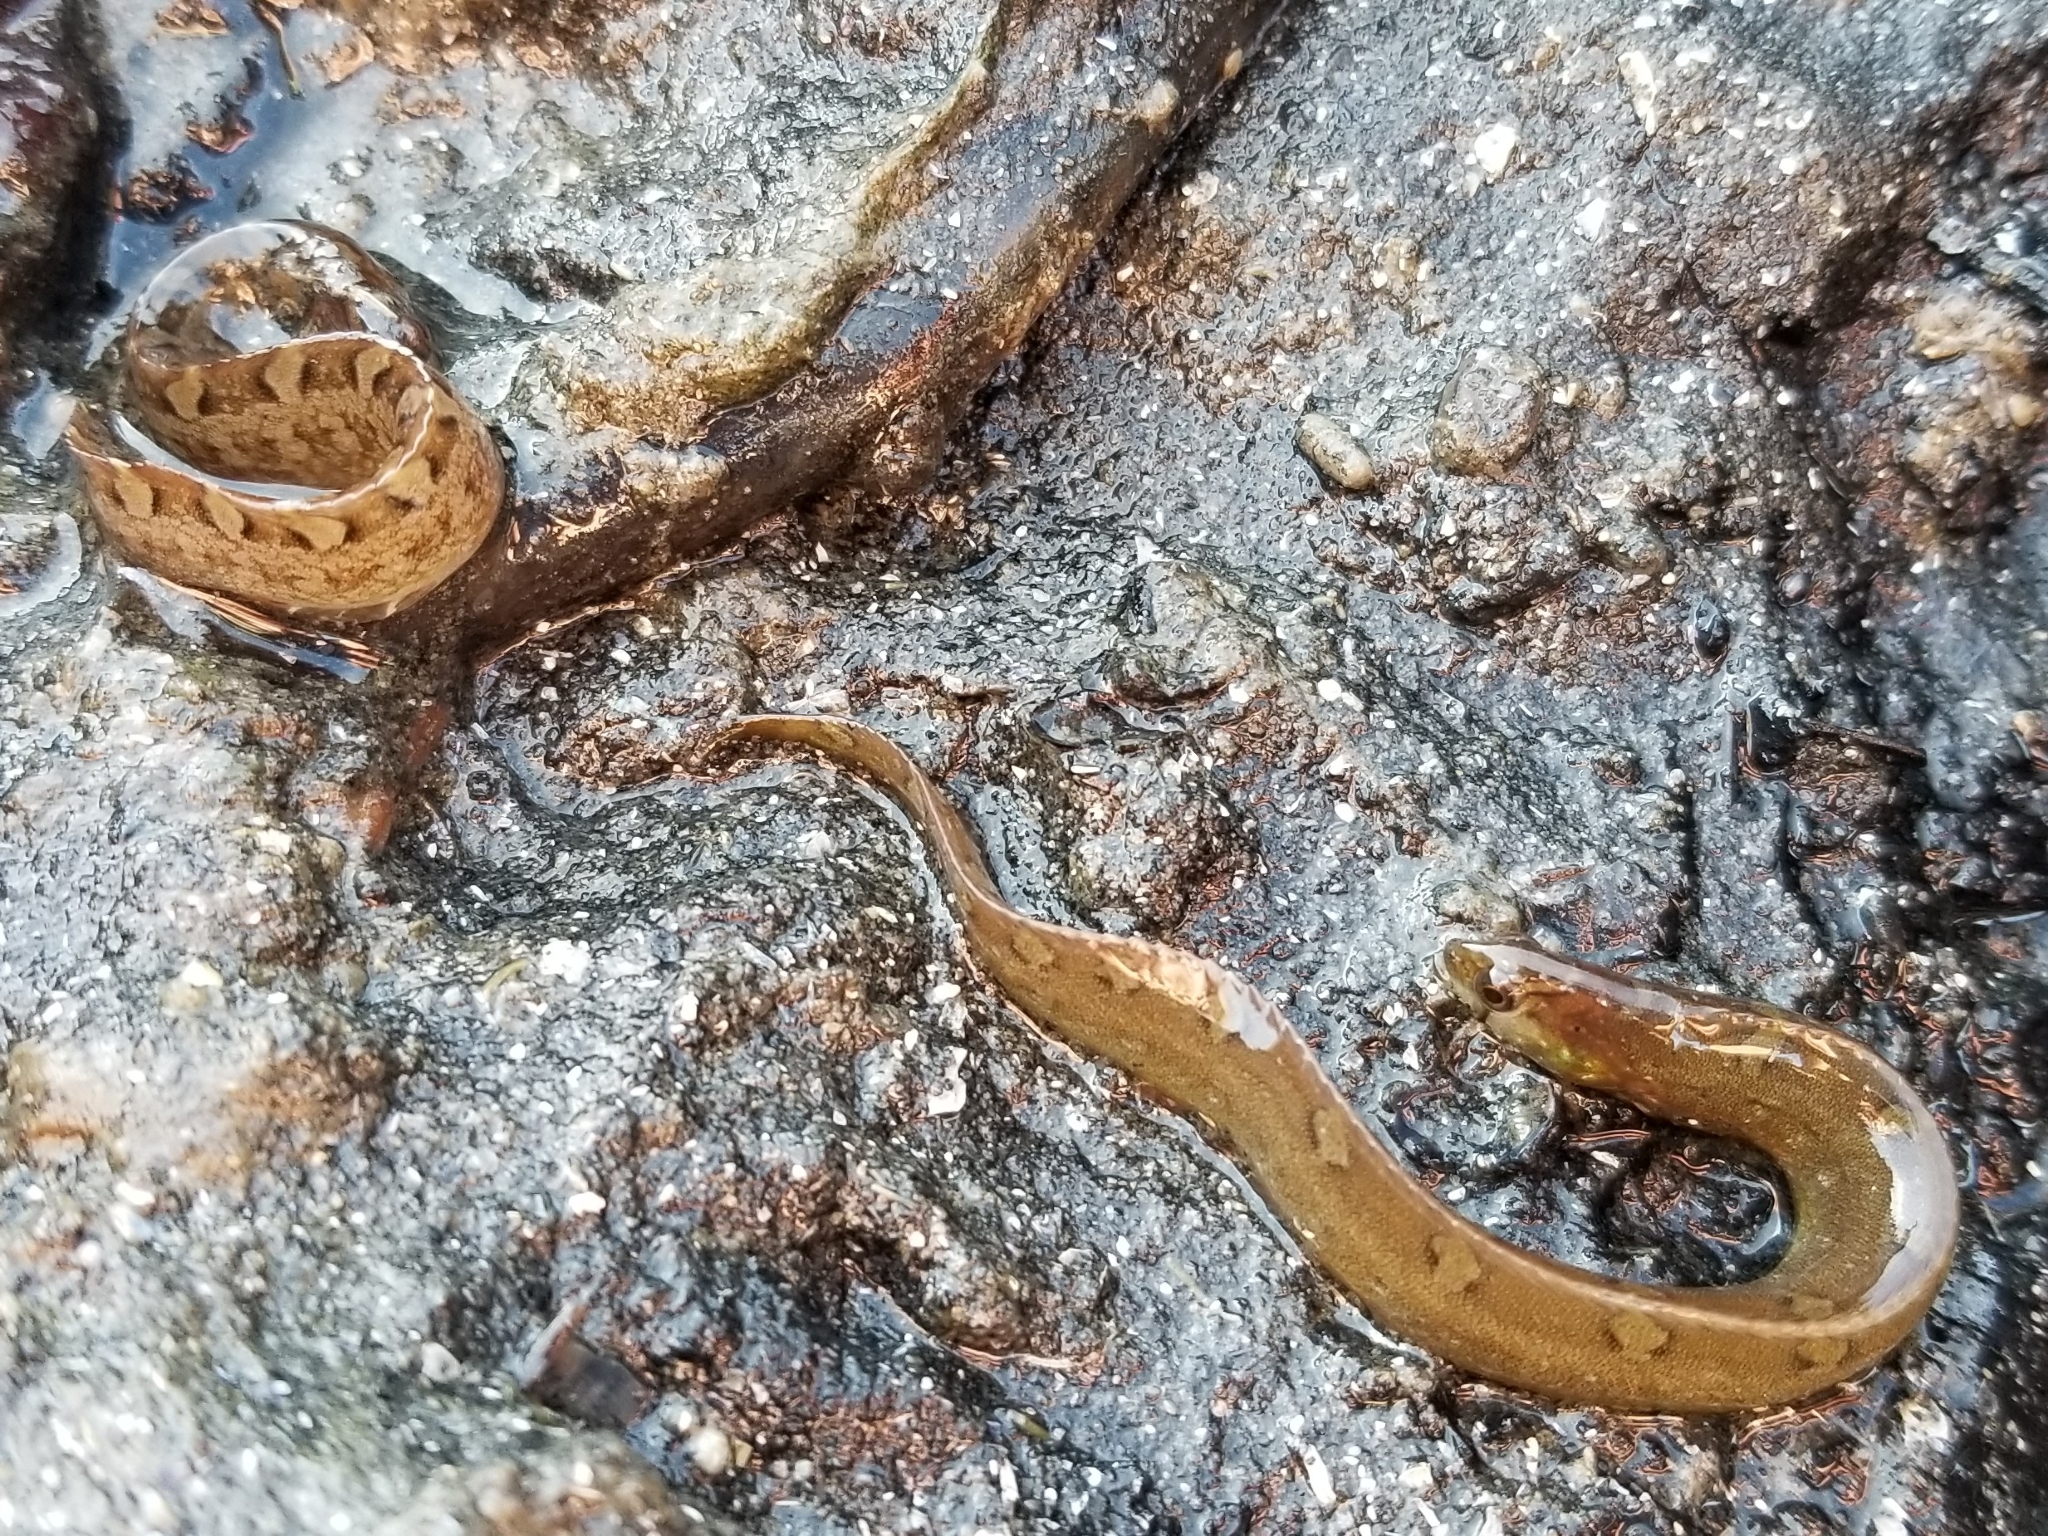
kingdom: Animalia
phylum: Chordata
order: Perciformes
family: Pholidae
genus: Pholis
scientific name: Pholis laeta
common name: Crescent gunnel
